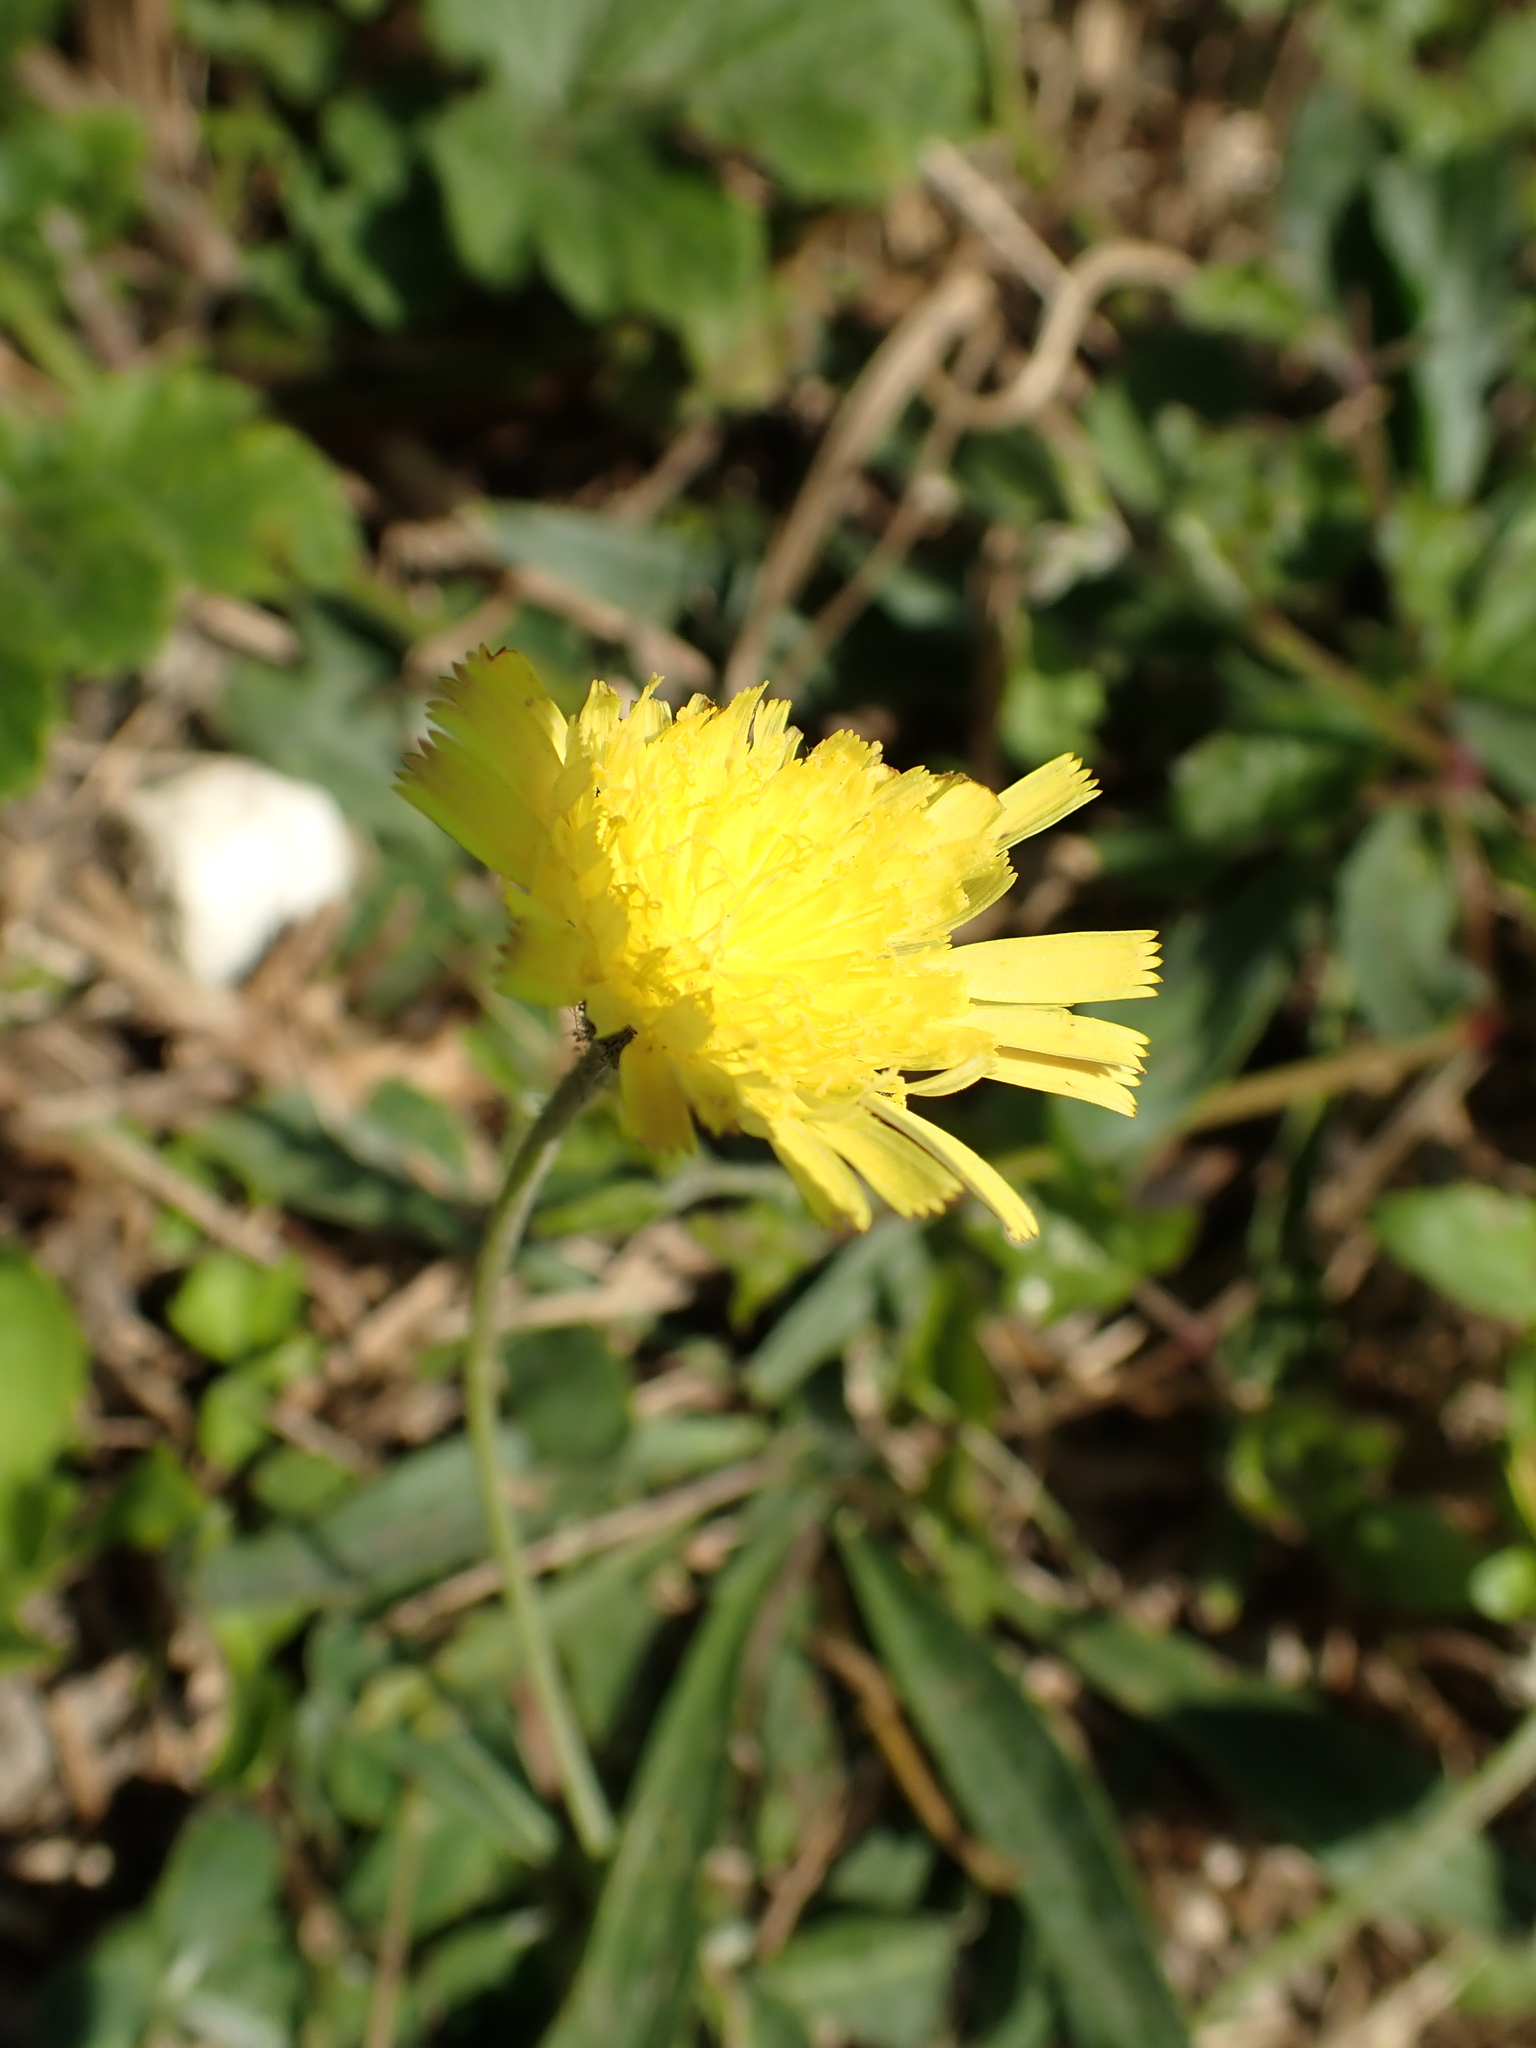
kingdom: Plantae
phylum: Tracheophyta
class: Magnoliopsida
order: Asterales
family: Asteraceae
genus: Pilosella
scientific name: Pilosella officinarum
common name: Mouse-ear hawkweed
